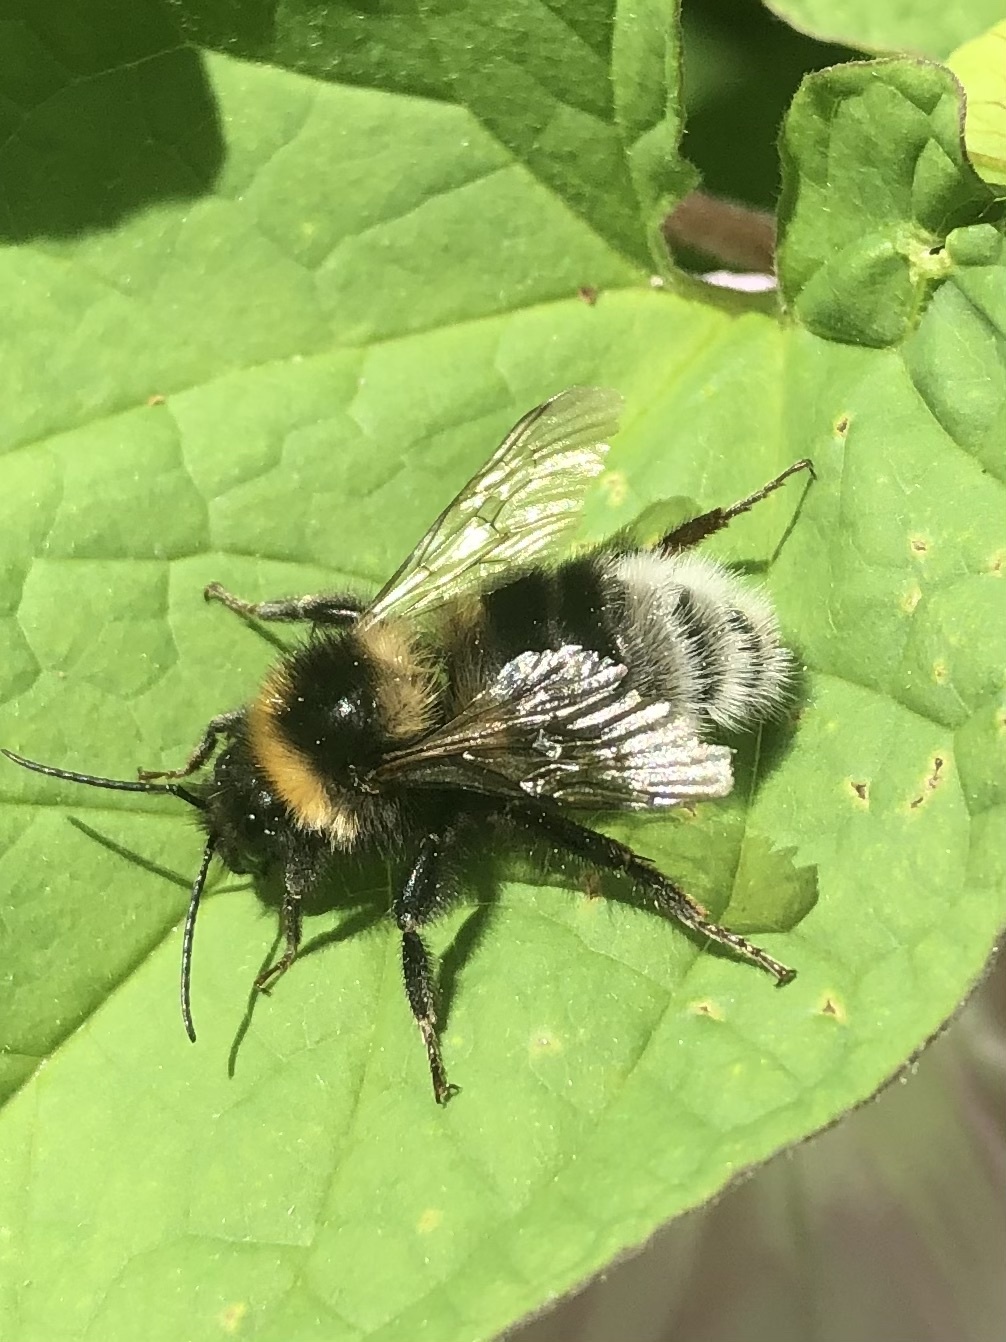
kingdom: Animalia
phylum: Arthropoda
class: Insecta
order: Hymenoptera
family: Apidae
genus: Bombus
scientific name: Bombus hortorum
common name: Garden bumblebee
